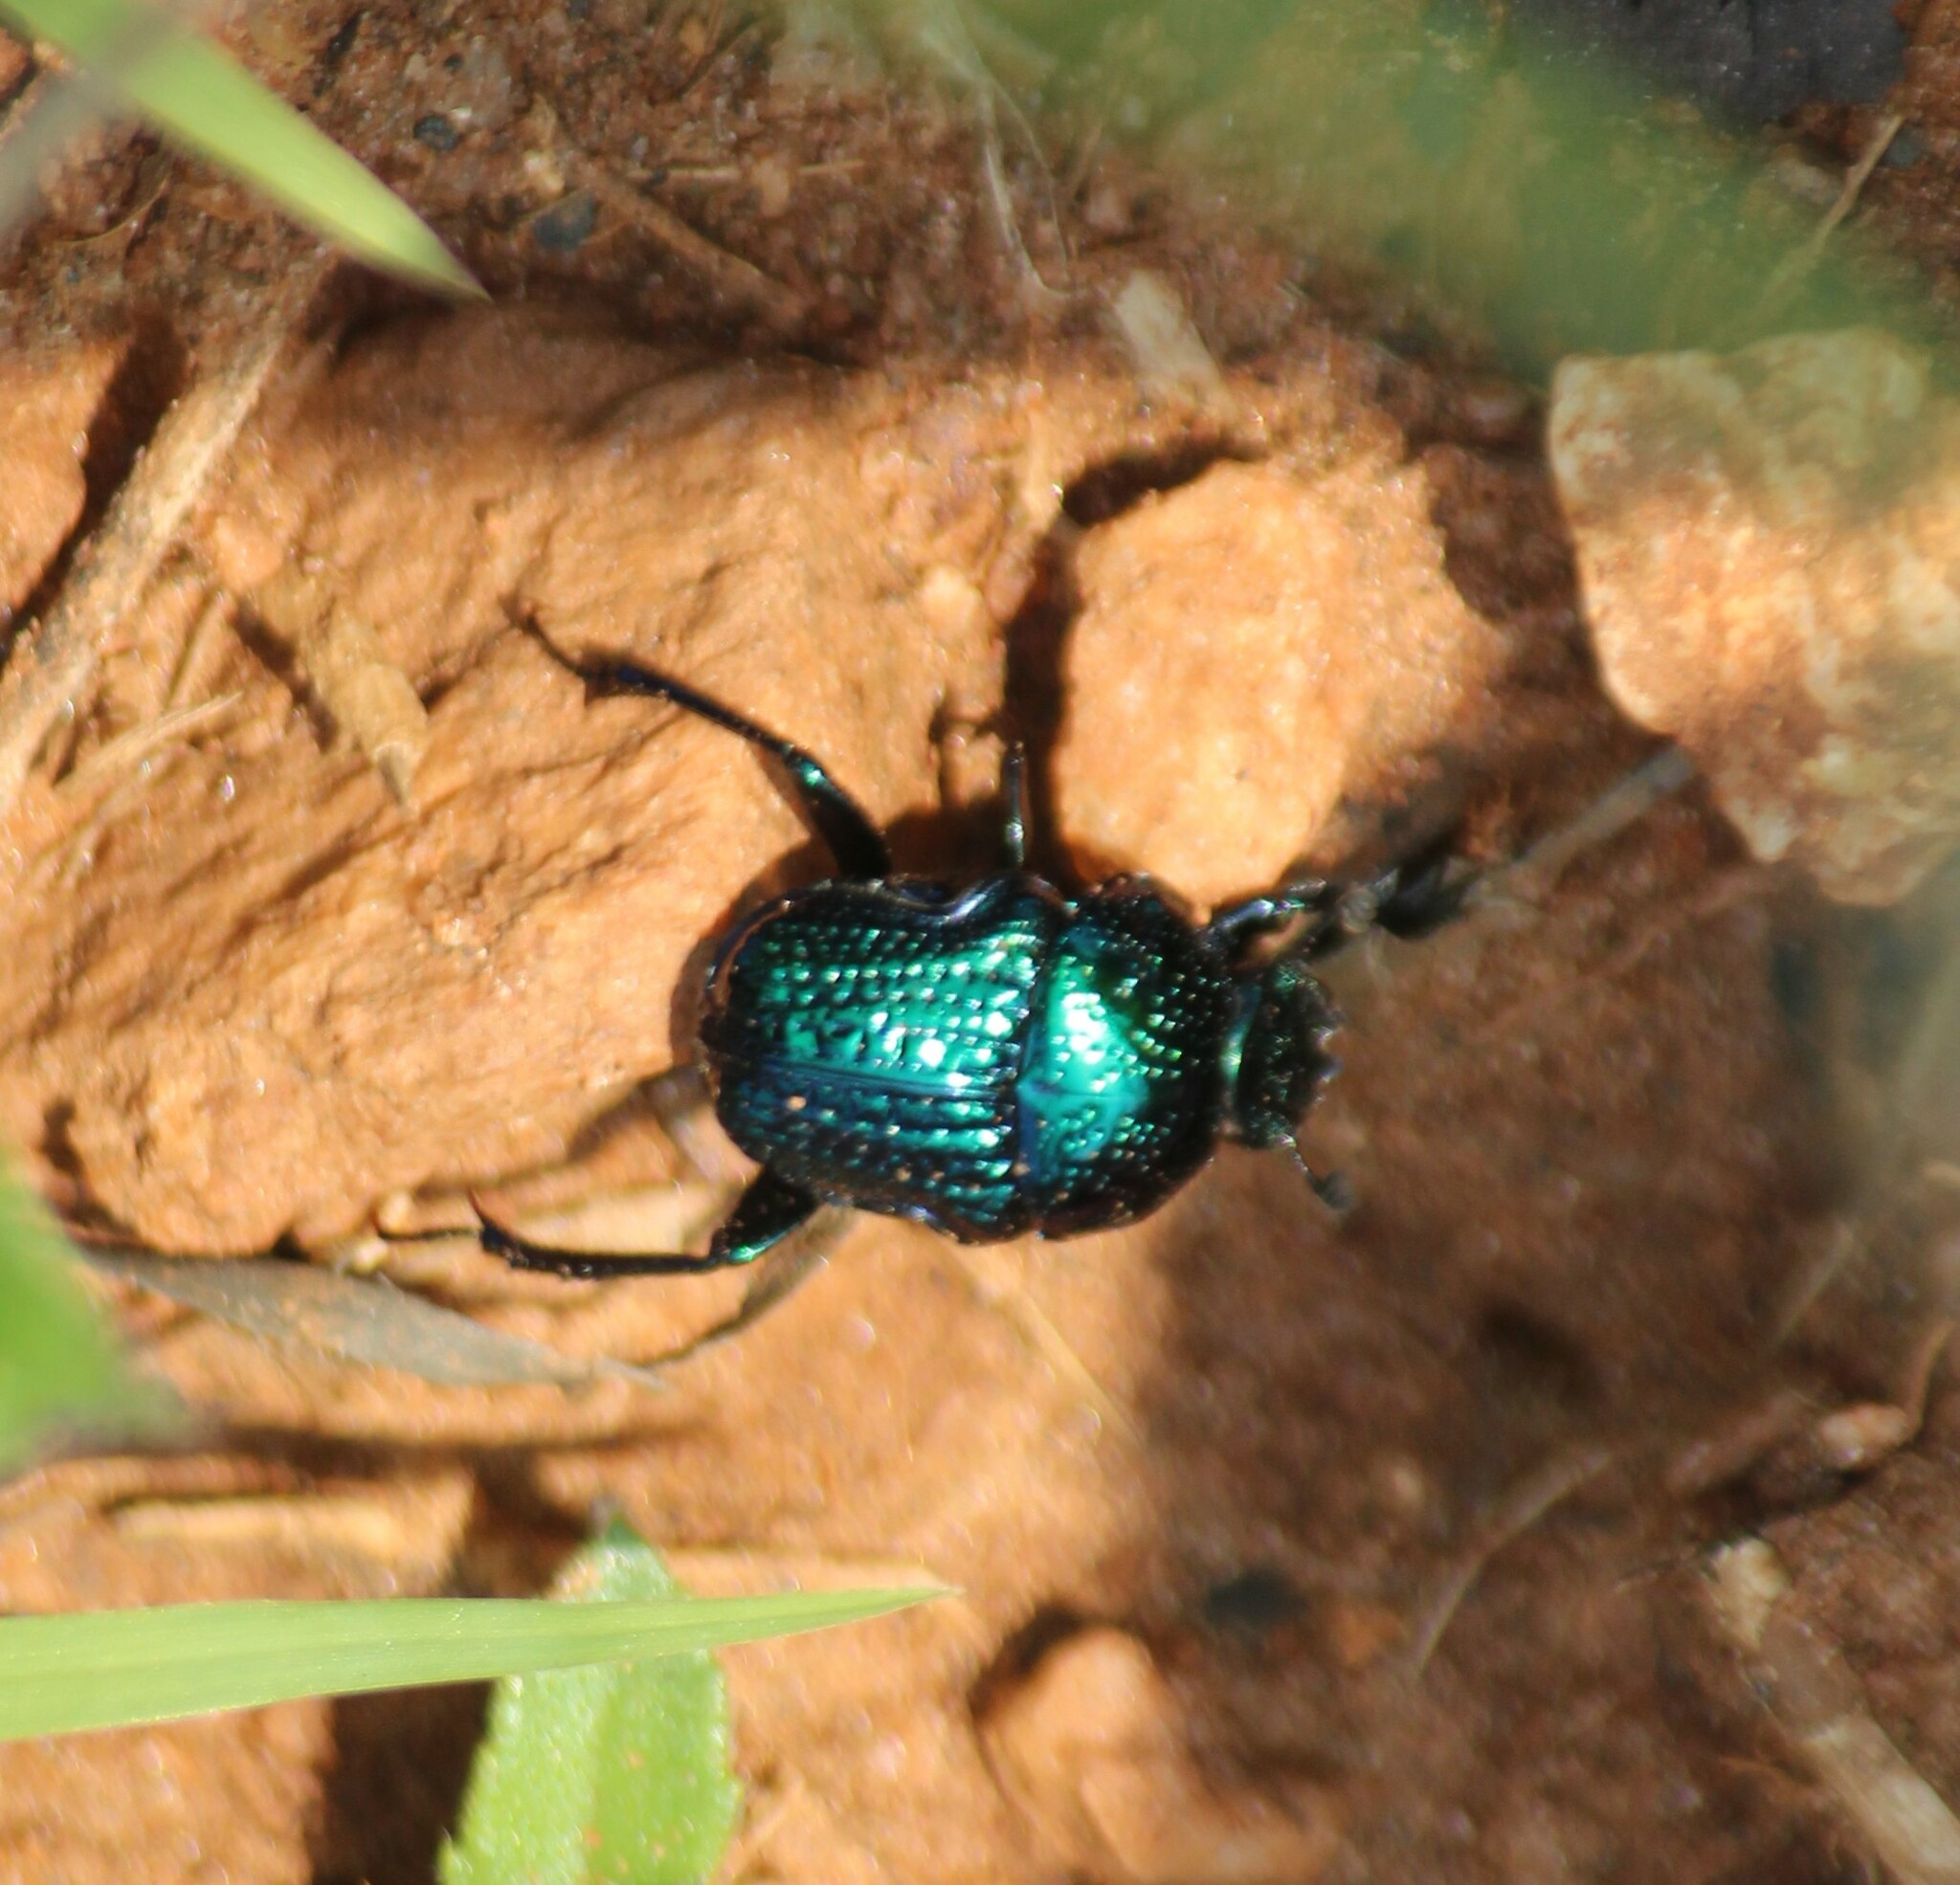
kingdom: Animalia
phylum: Arthropoda
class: Insecta
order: Coleoptera
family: Scarabaeidae
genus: Gymnopleurus
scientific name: Gymnopleurus cyaneus
